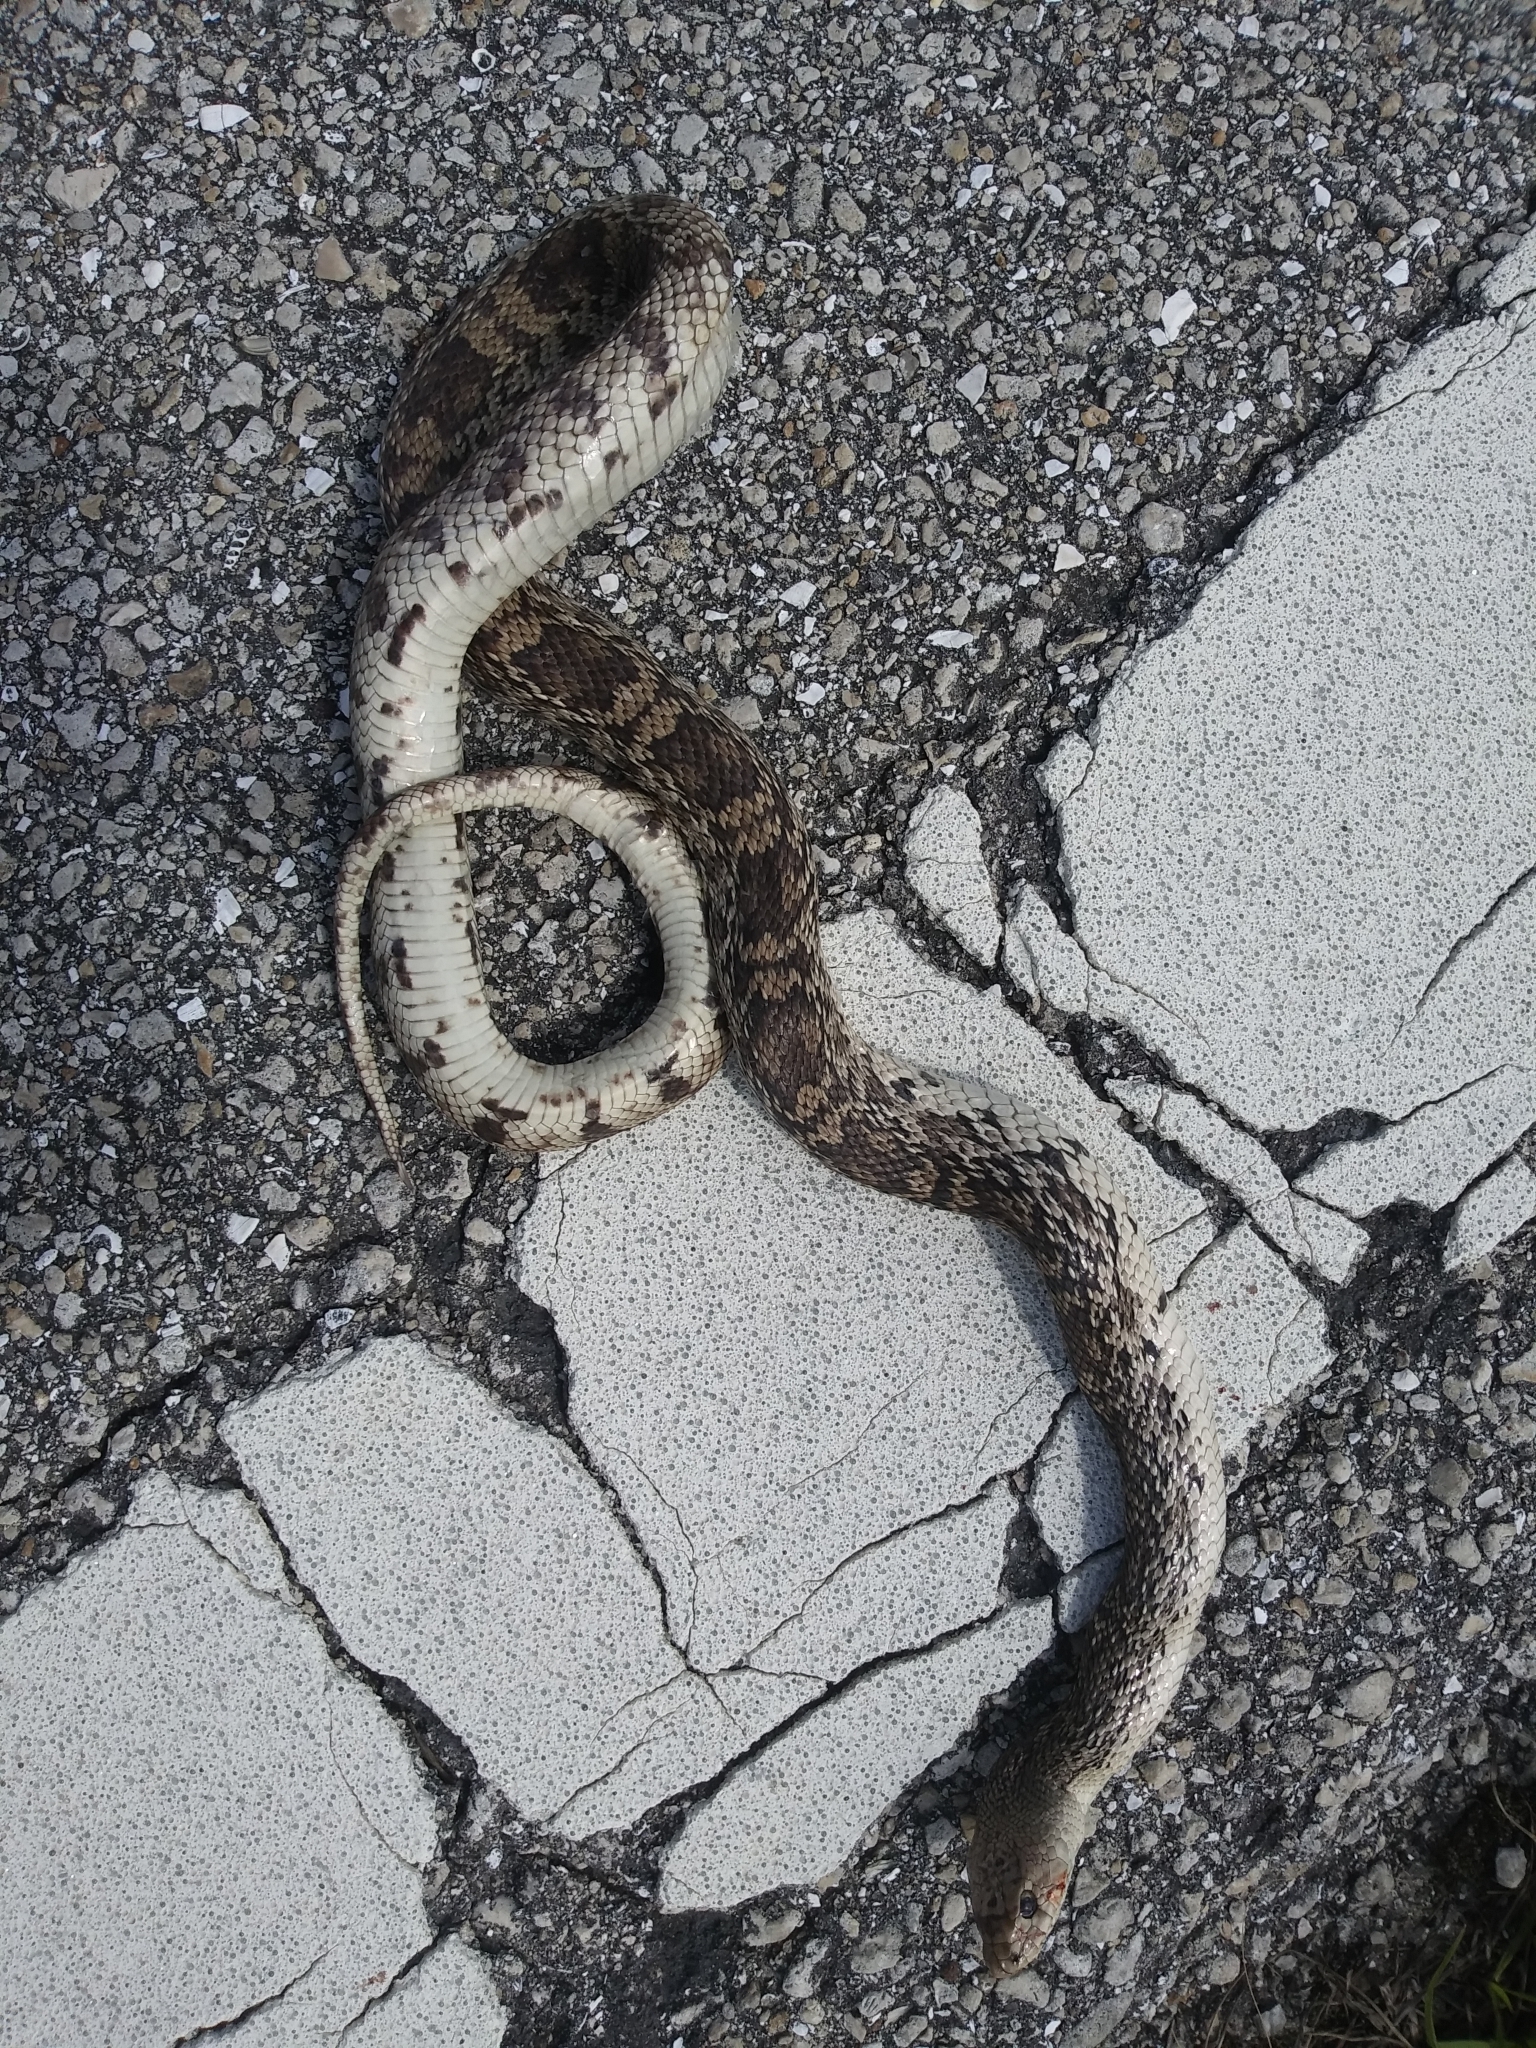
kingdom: Animalia
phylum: Chordata
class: Squamata
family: Colubridae
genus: Pituophis
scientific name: Pituophis melanoleucus
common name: Pine snake
